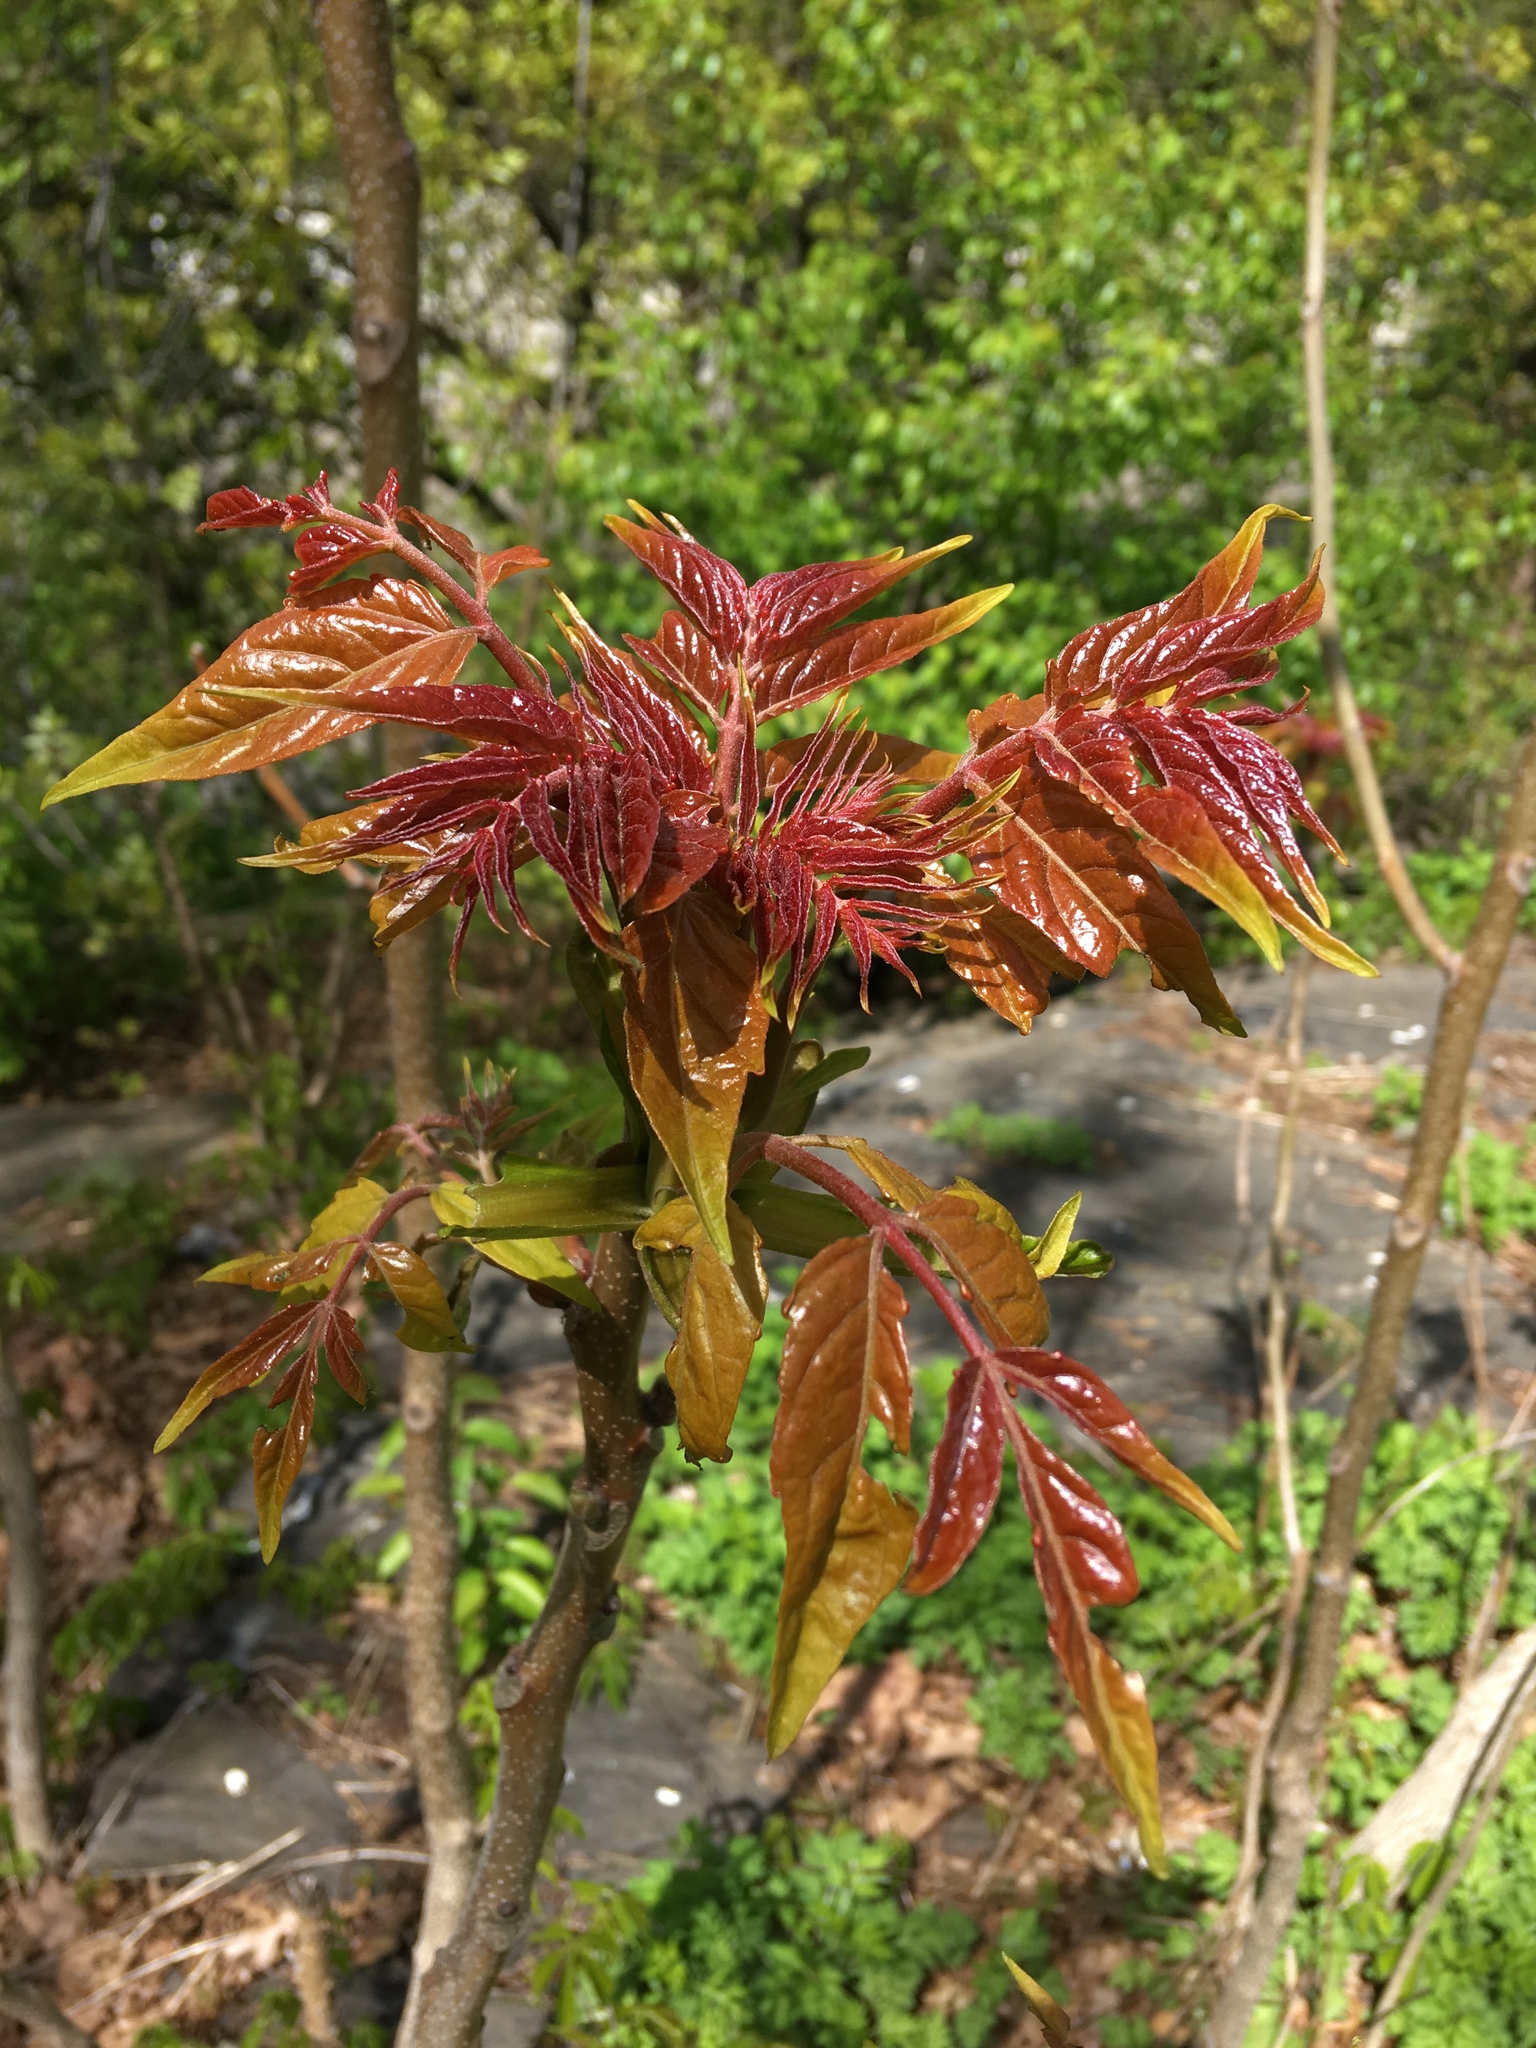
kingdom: Plantae
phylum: Tracheophyta
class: Magnoliopsida
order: Sapindales
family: Simaroubaceae
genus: Ailanthus
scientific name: Ailanthus altissima
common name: Tree-of-heaven
